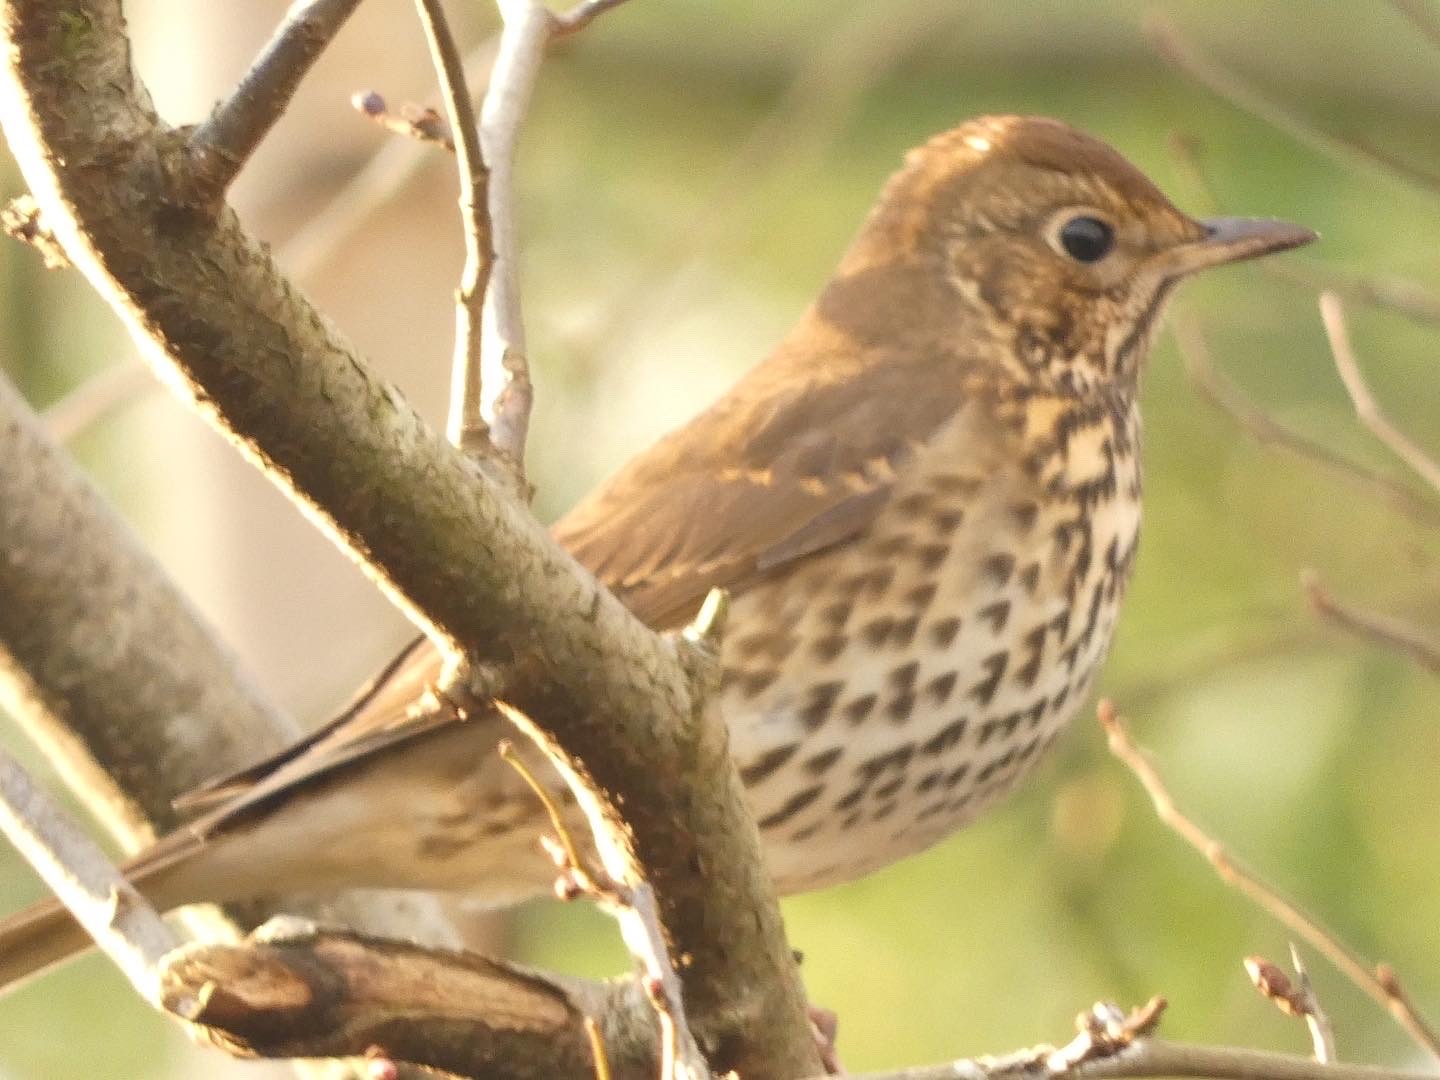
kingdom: Animalia
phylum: Chordata
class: Aves
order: Passeriformes
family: Turdidae
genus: Turdus
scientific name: Turdus philomelos
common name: Song thrush
